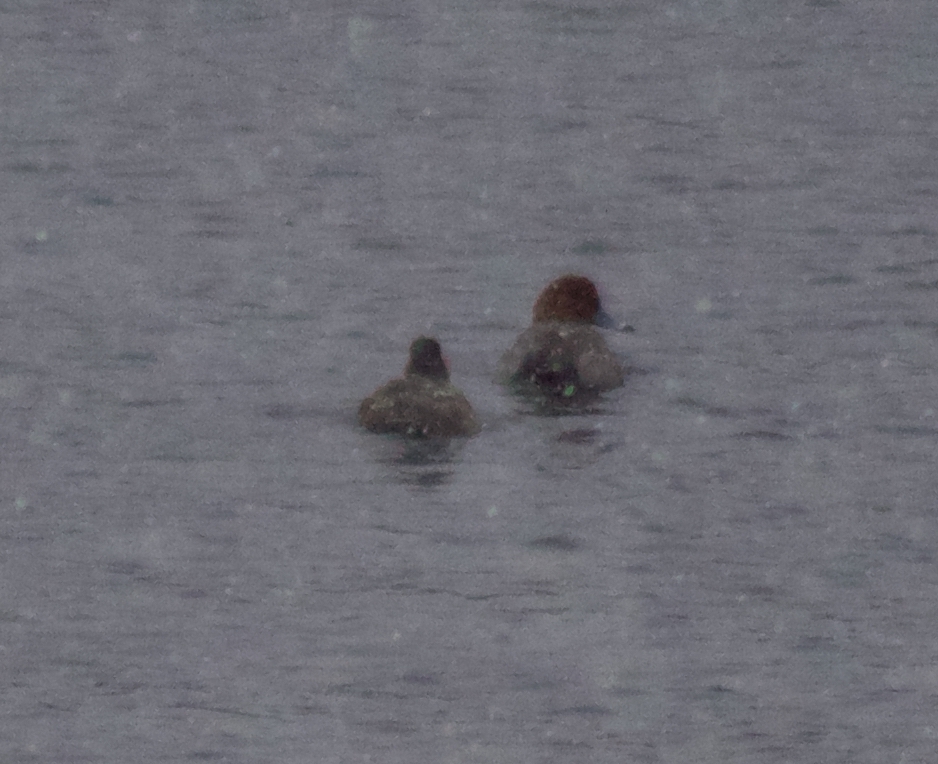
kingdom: Animalia
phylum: Chordata
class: Aves
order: Anseriformes
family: Anatidae
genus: Aythya
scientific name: Aythya americana
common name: Redhead
